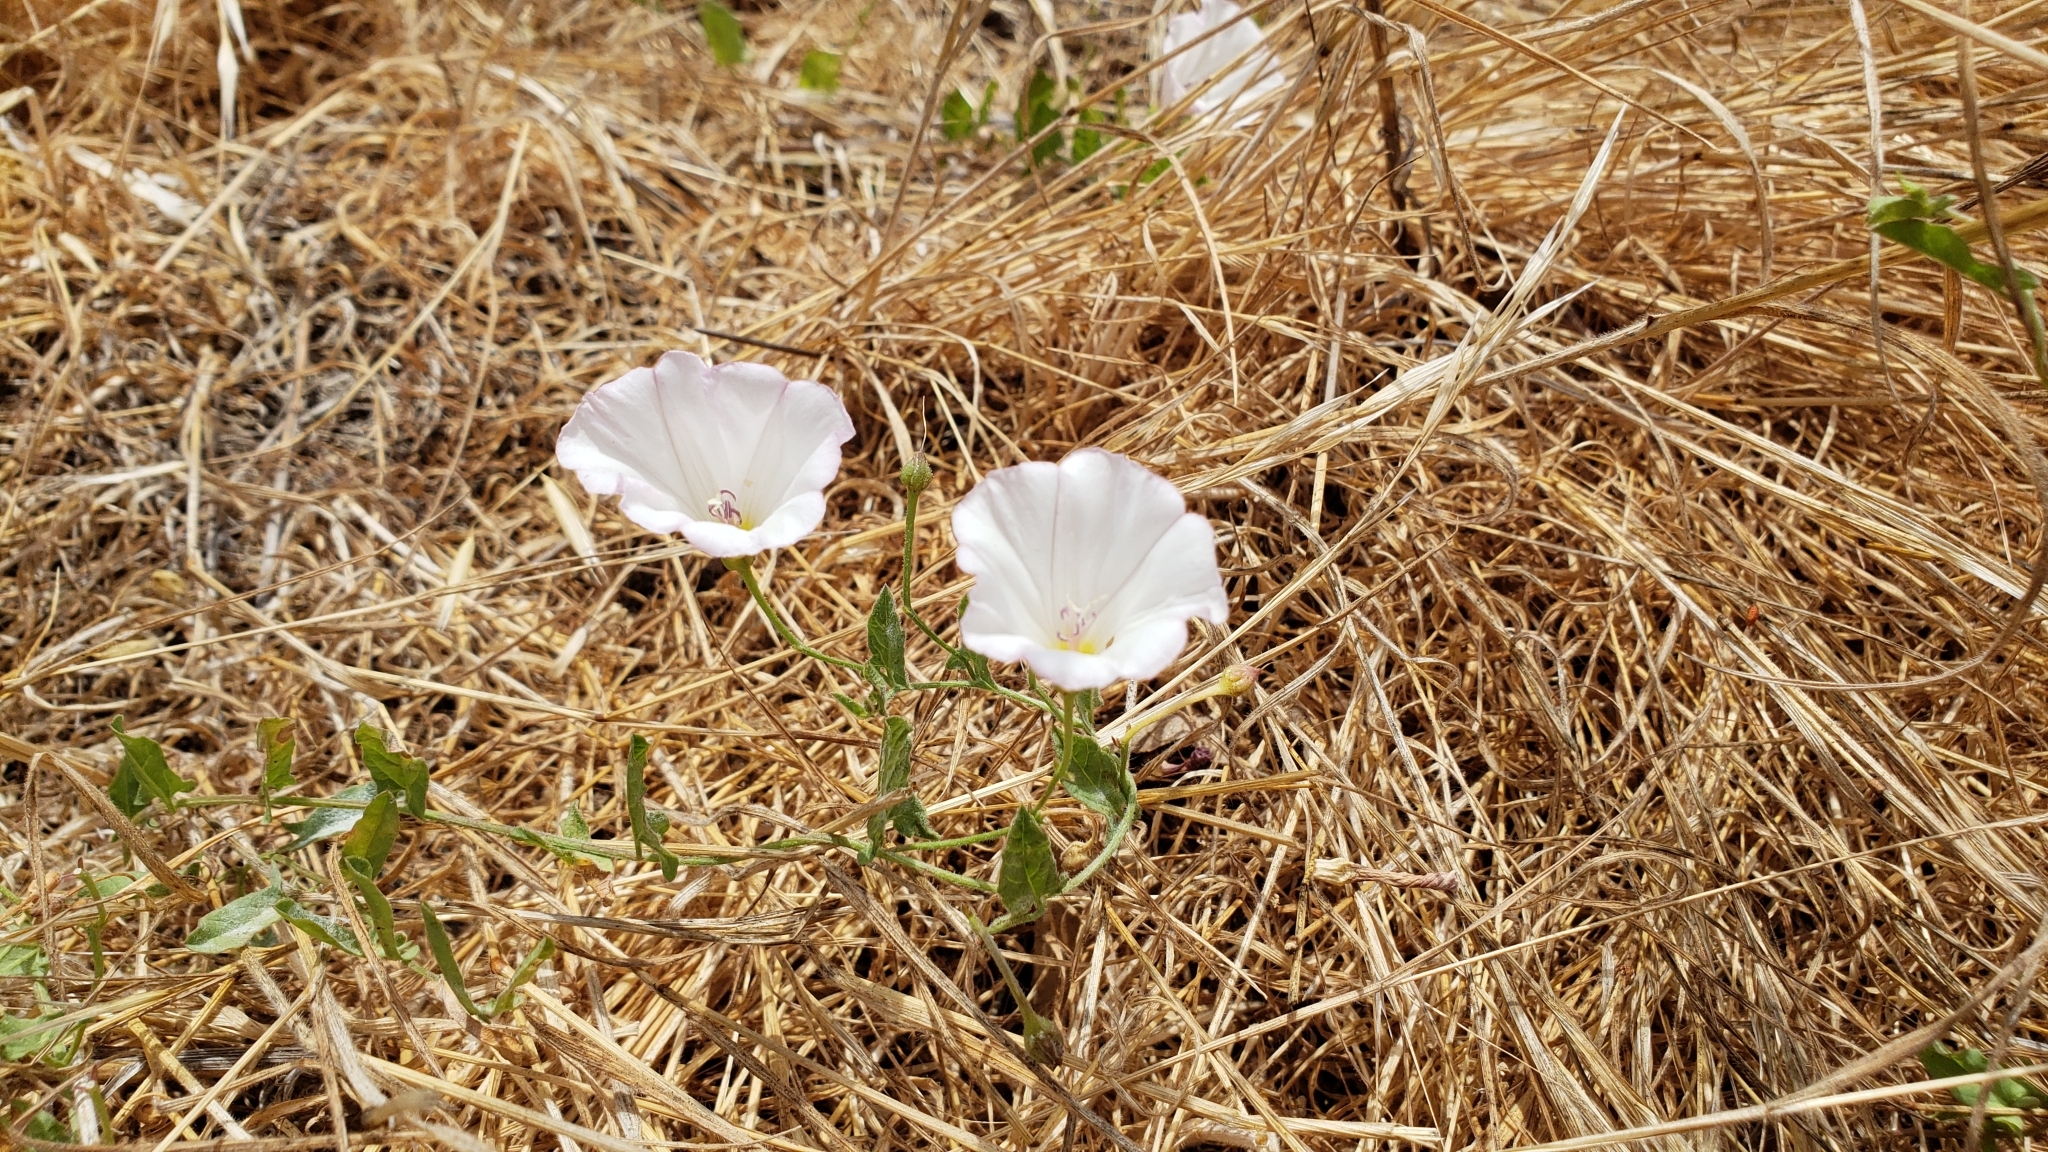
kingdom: Plantae
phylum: Tracheophyta
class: Magnoliopsida
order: Solanales
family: Convolvulaceae
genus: Convolvulus
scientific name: Convolvulus arvensis
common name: Field bindweed
